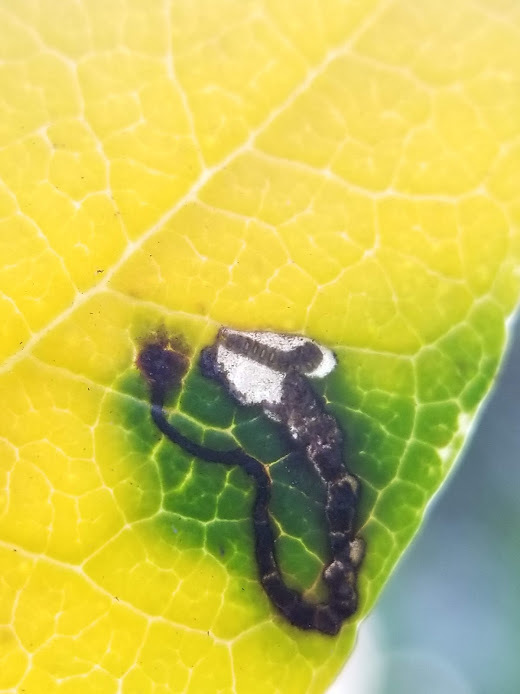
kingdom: Animalia
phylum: Arthropoda
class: Insecta
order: Lepidoptera
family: Heliozelidae
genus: Coptodisca
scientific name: Coptodisca arbutiella
